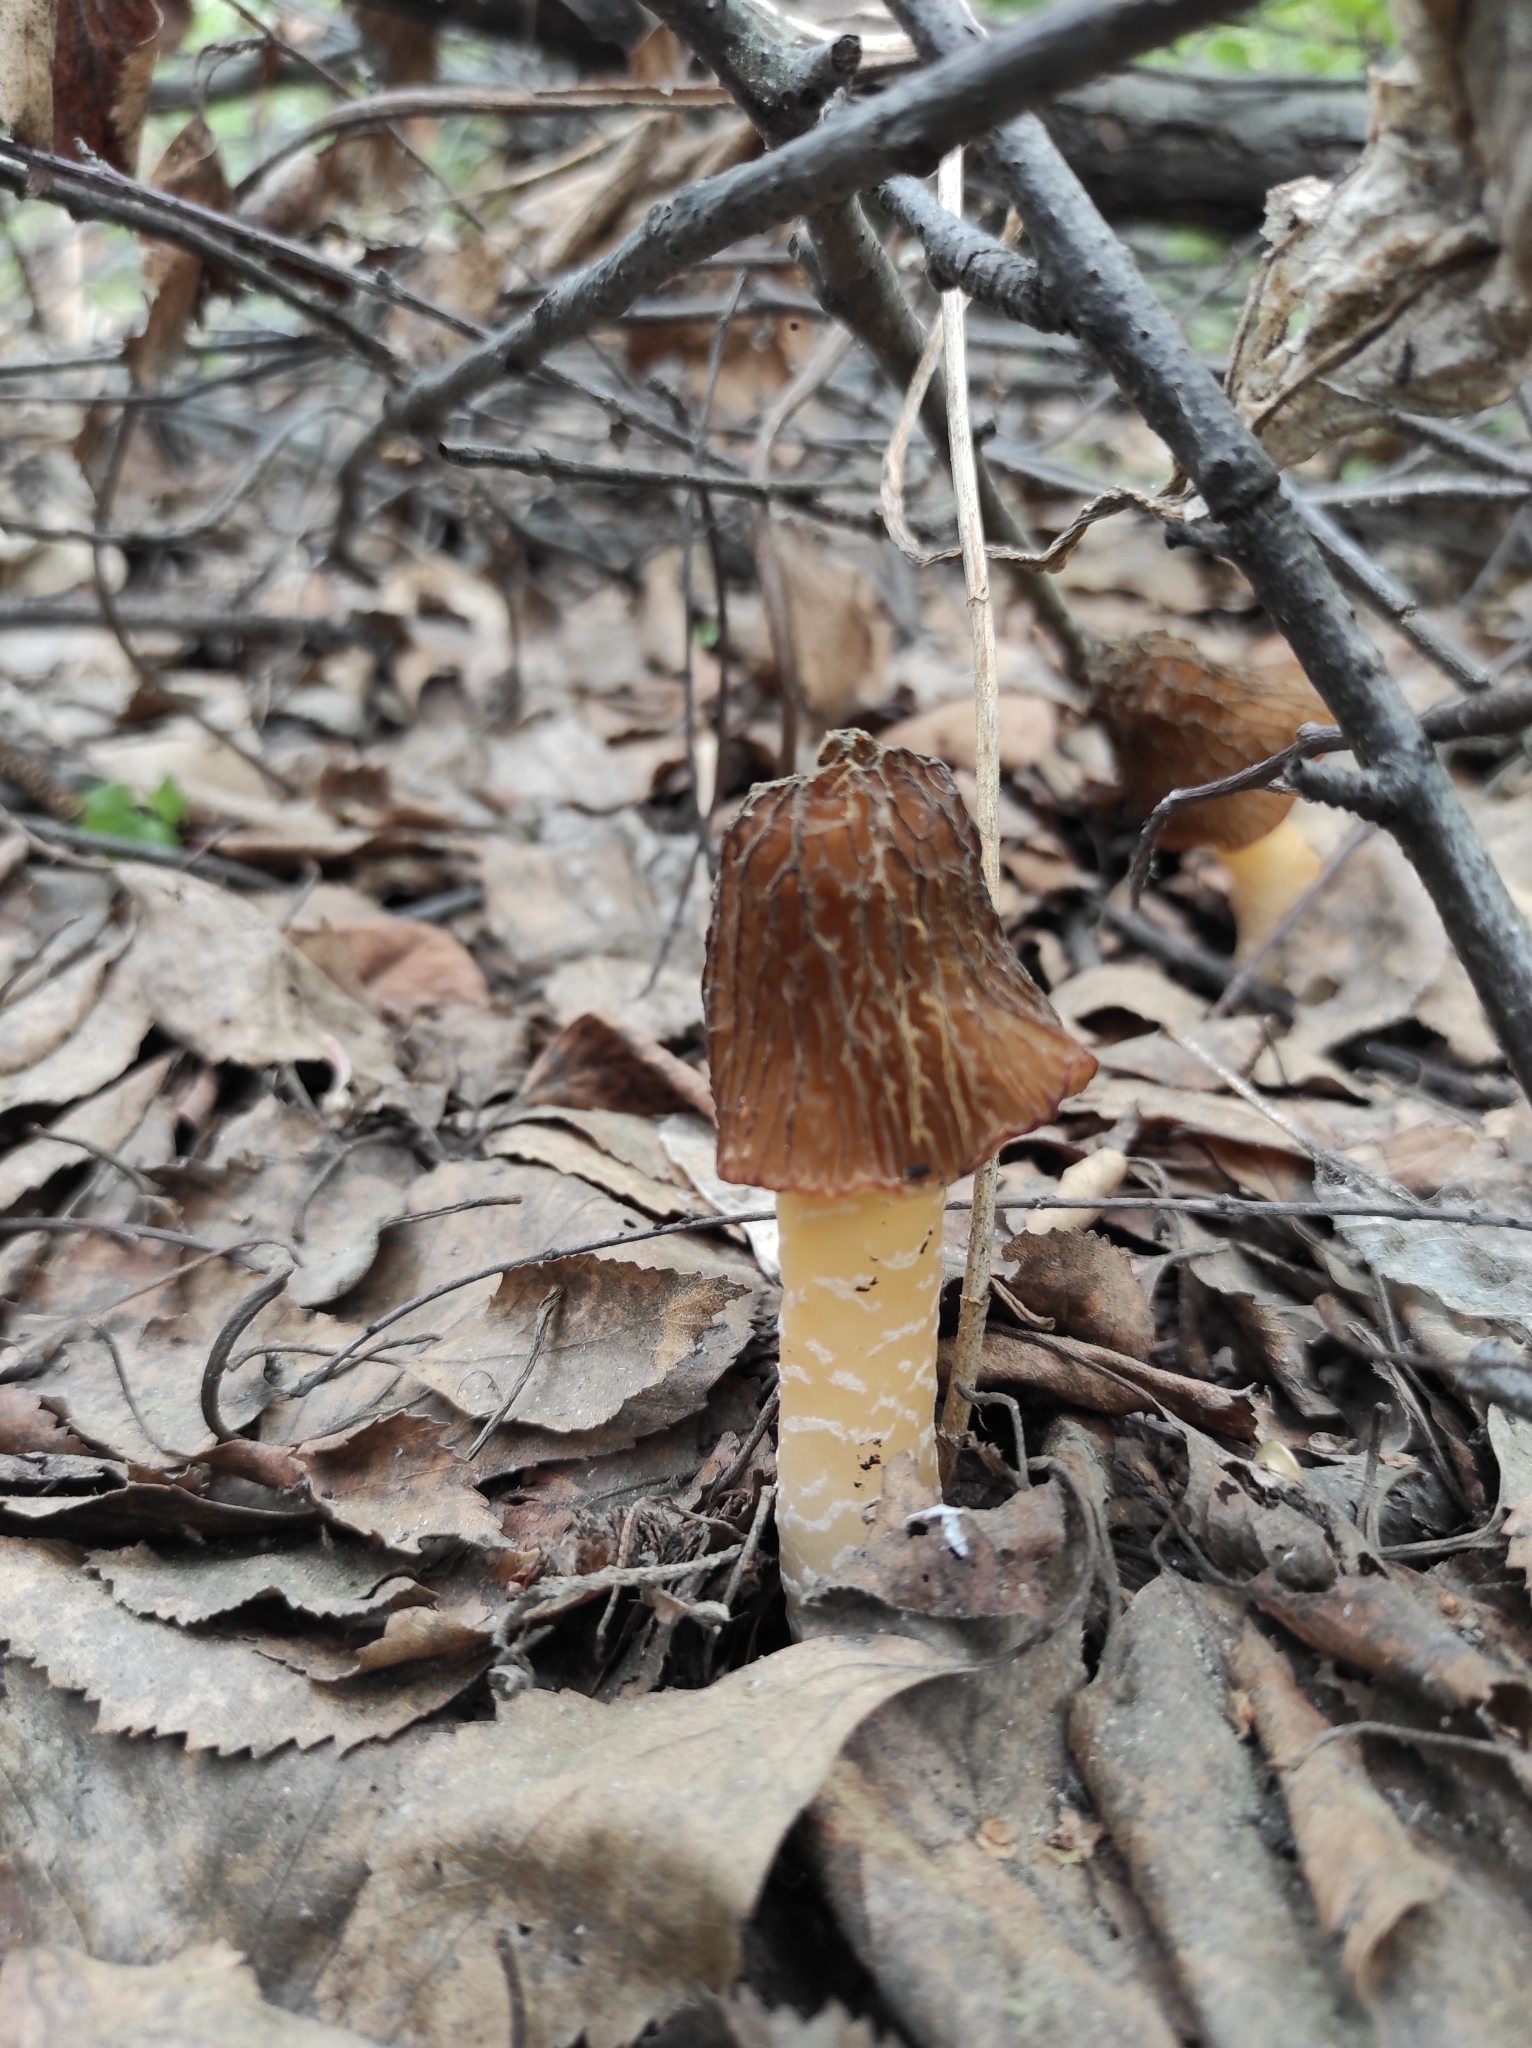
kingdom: Fungi
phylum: Ascomycota
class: Pezizomycetes
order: Pezizales
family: Morchellaceae
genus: Verpa
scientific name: Verpa bohemica
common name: Wrinkled thimble morel
